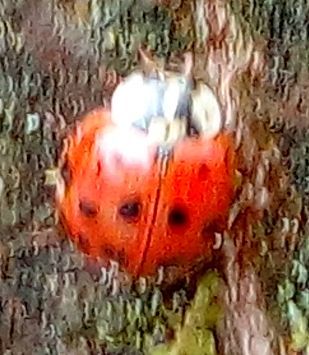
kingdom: Animalia
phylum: Arthropoda
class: Insecta
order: Coleoptera
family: Coccinellidae
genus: Harmonia
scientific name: Harmonia axyridis
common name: Harlequin ladybird
